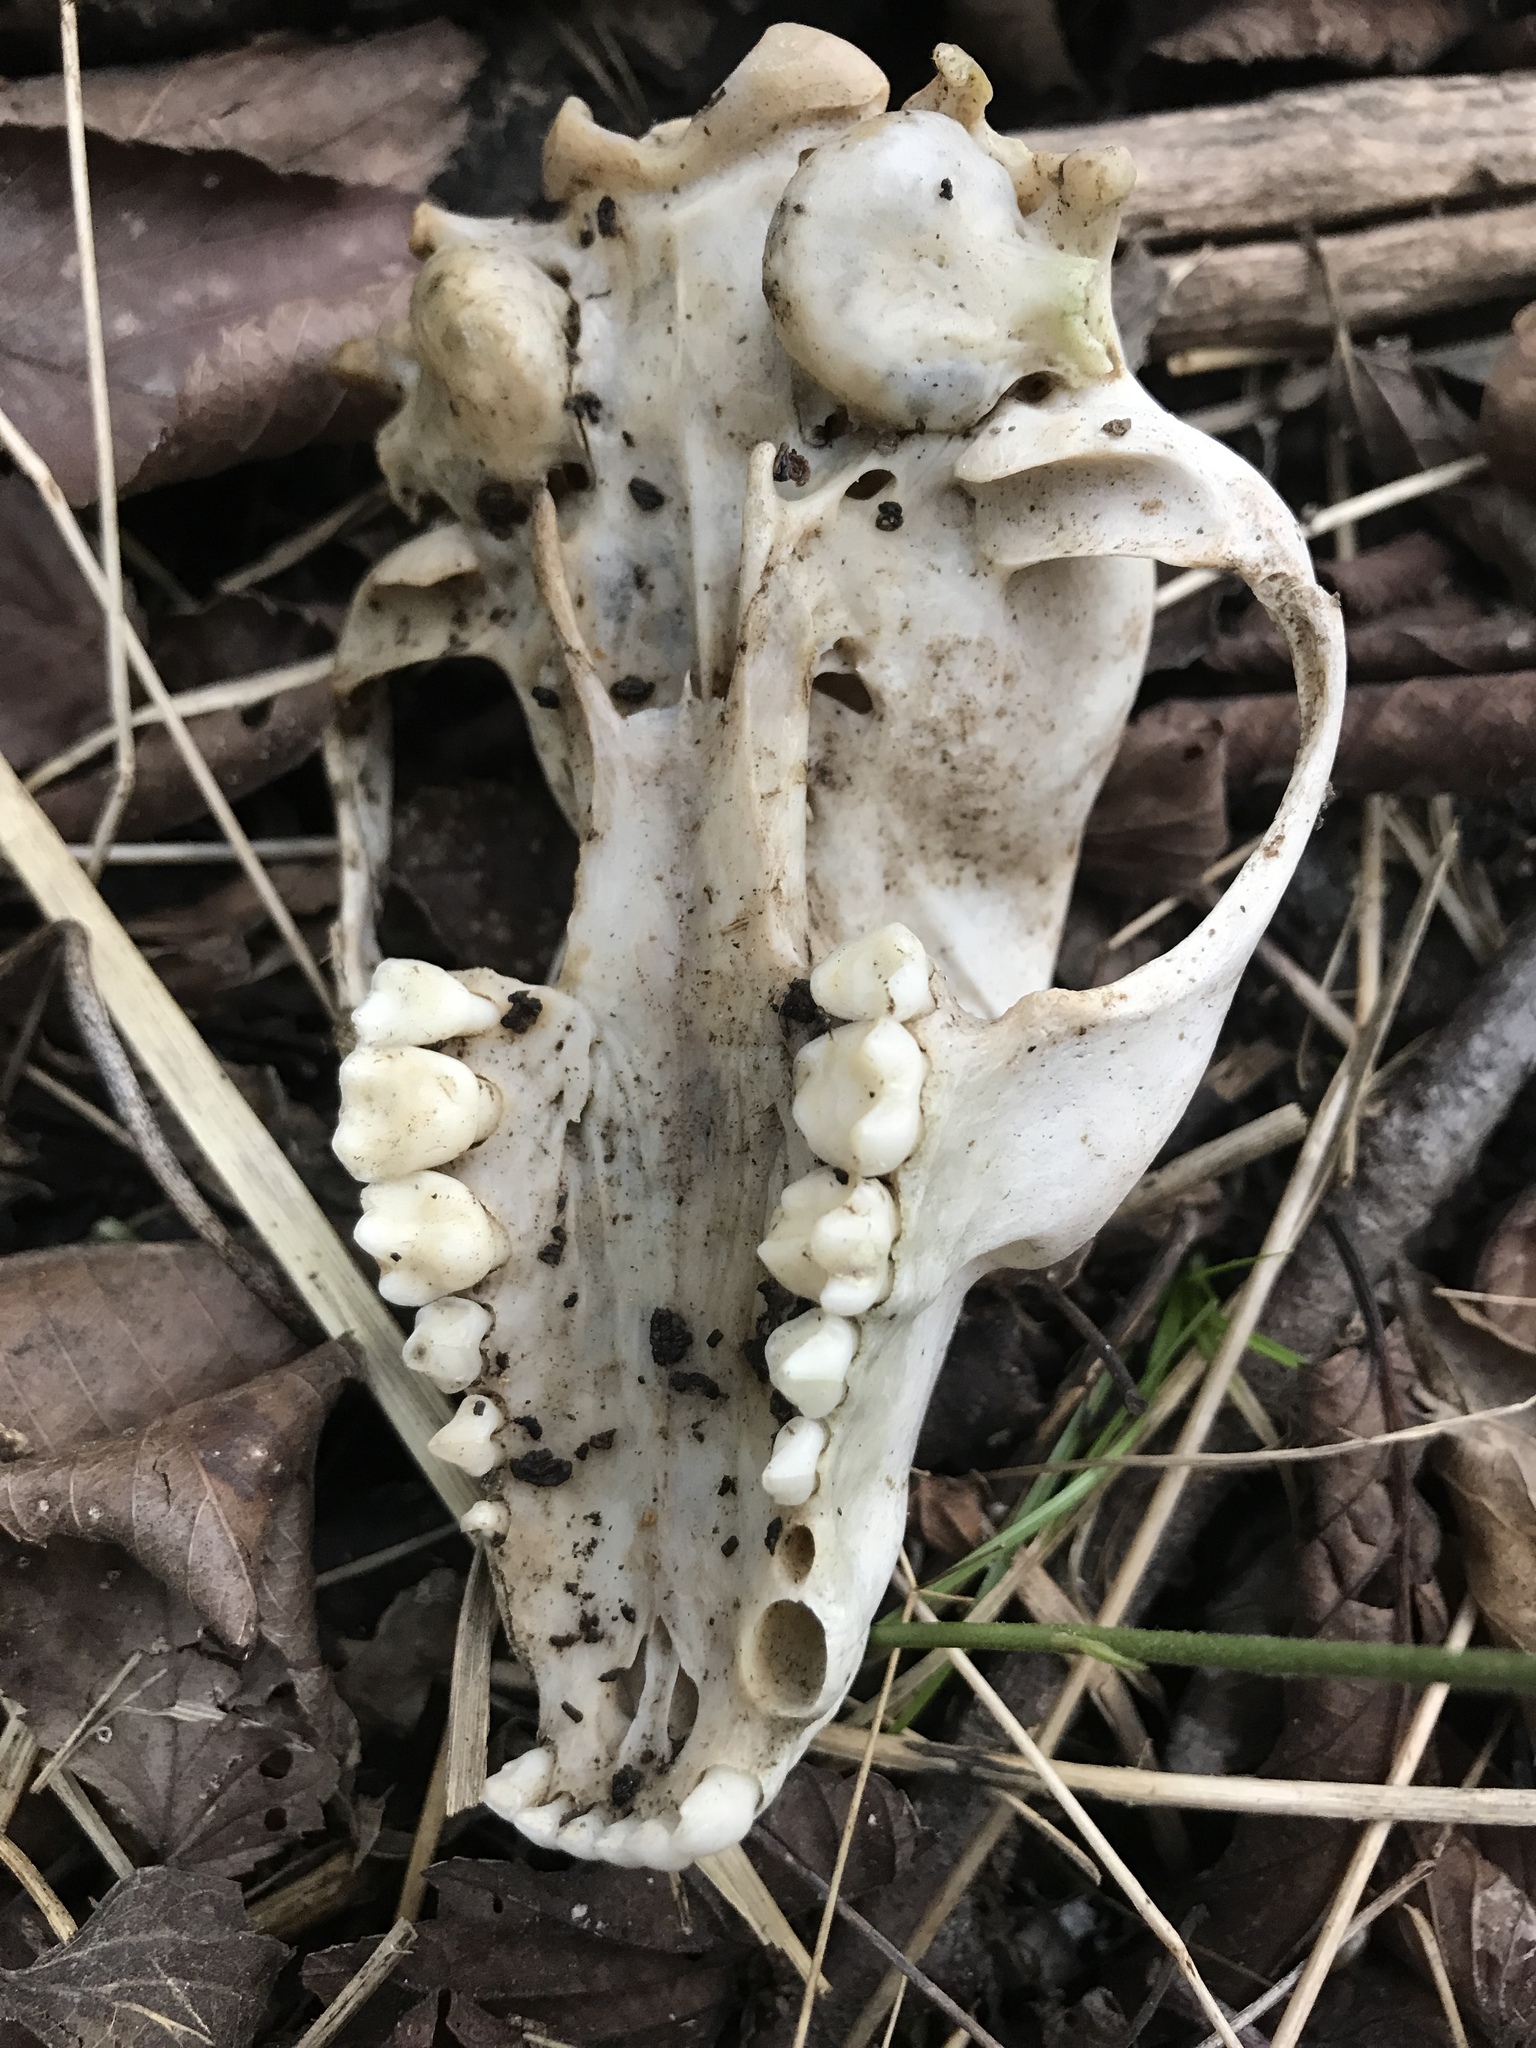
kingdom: Animalia
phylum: Chordata
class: Mammalia
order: Carnivora
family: Procyonidae
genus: Procyon
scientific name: Procyon lotor
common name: Raccoon
